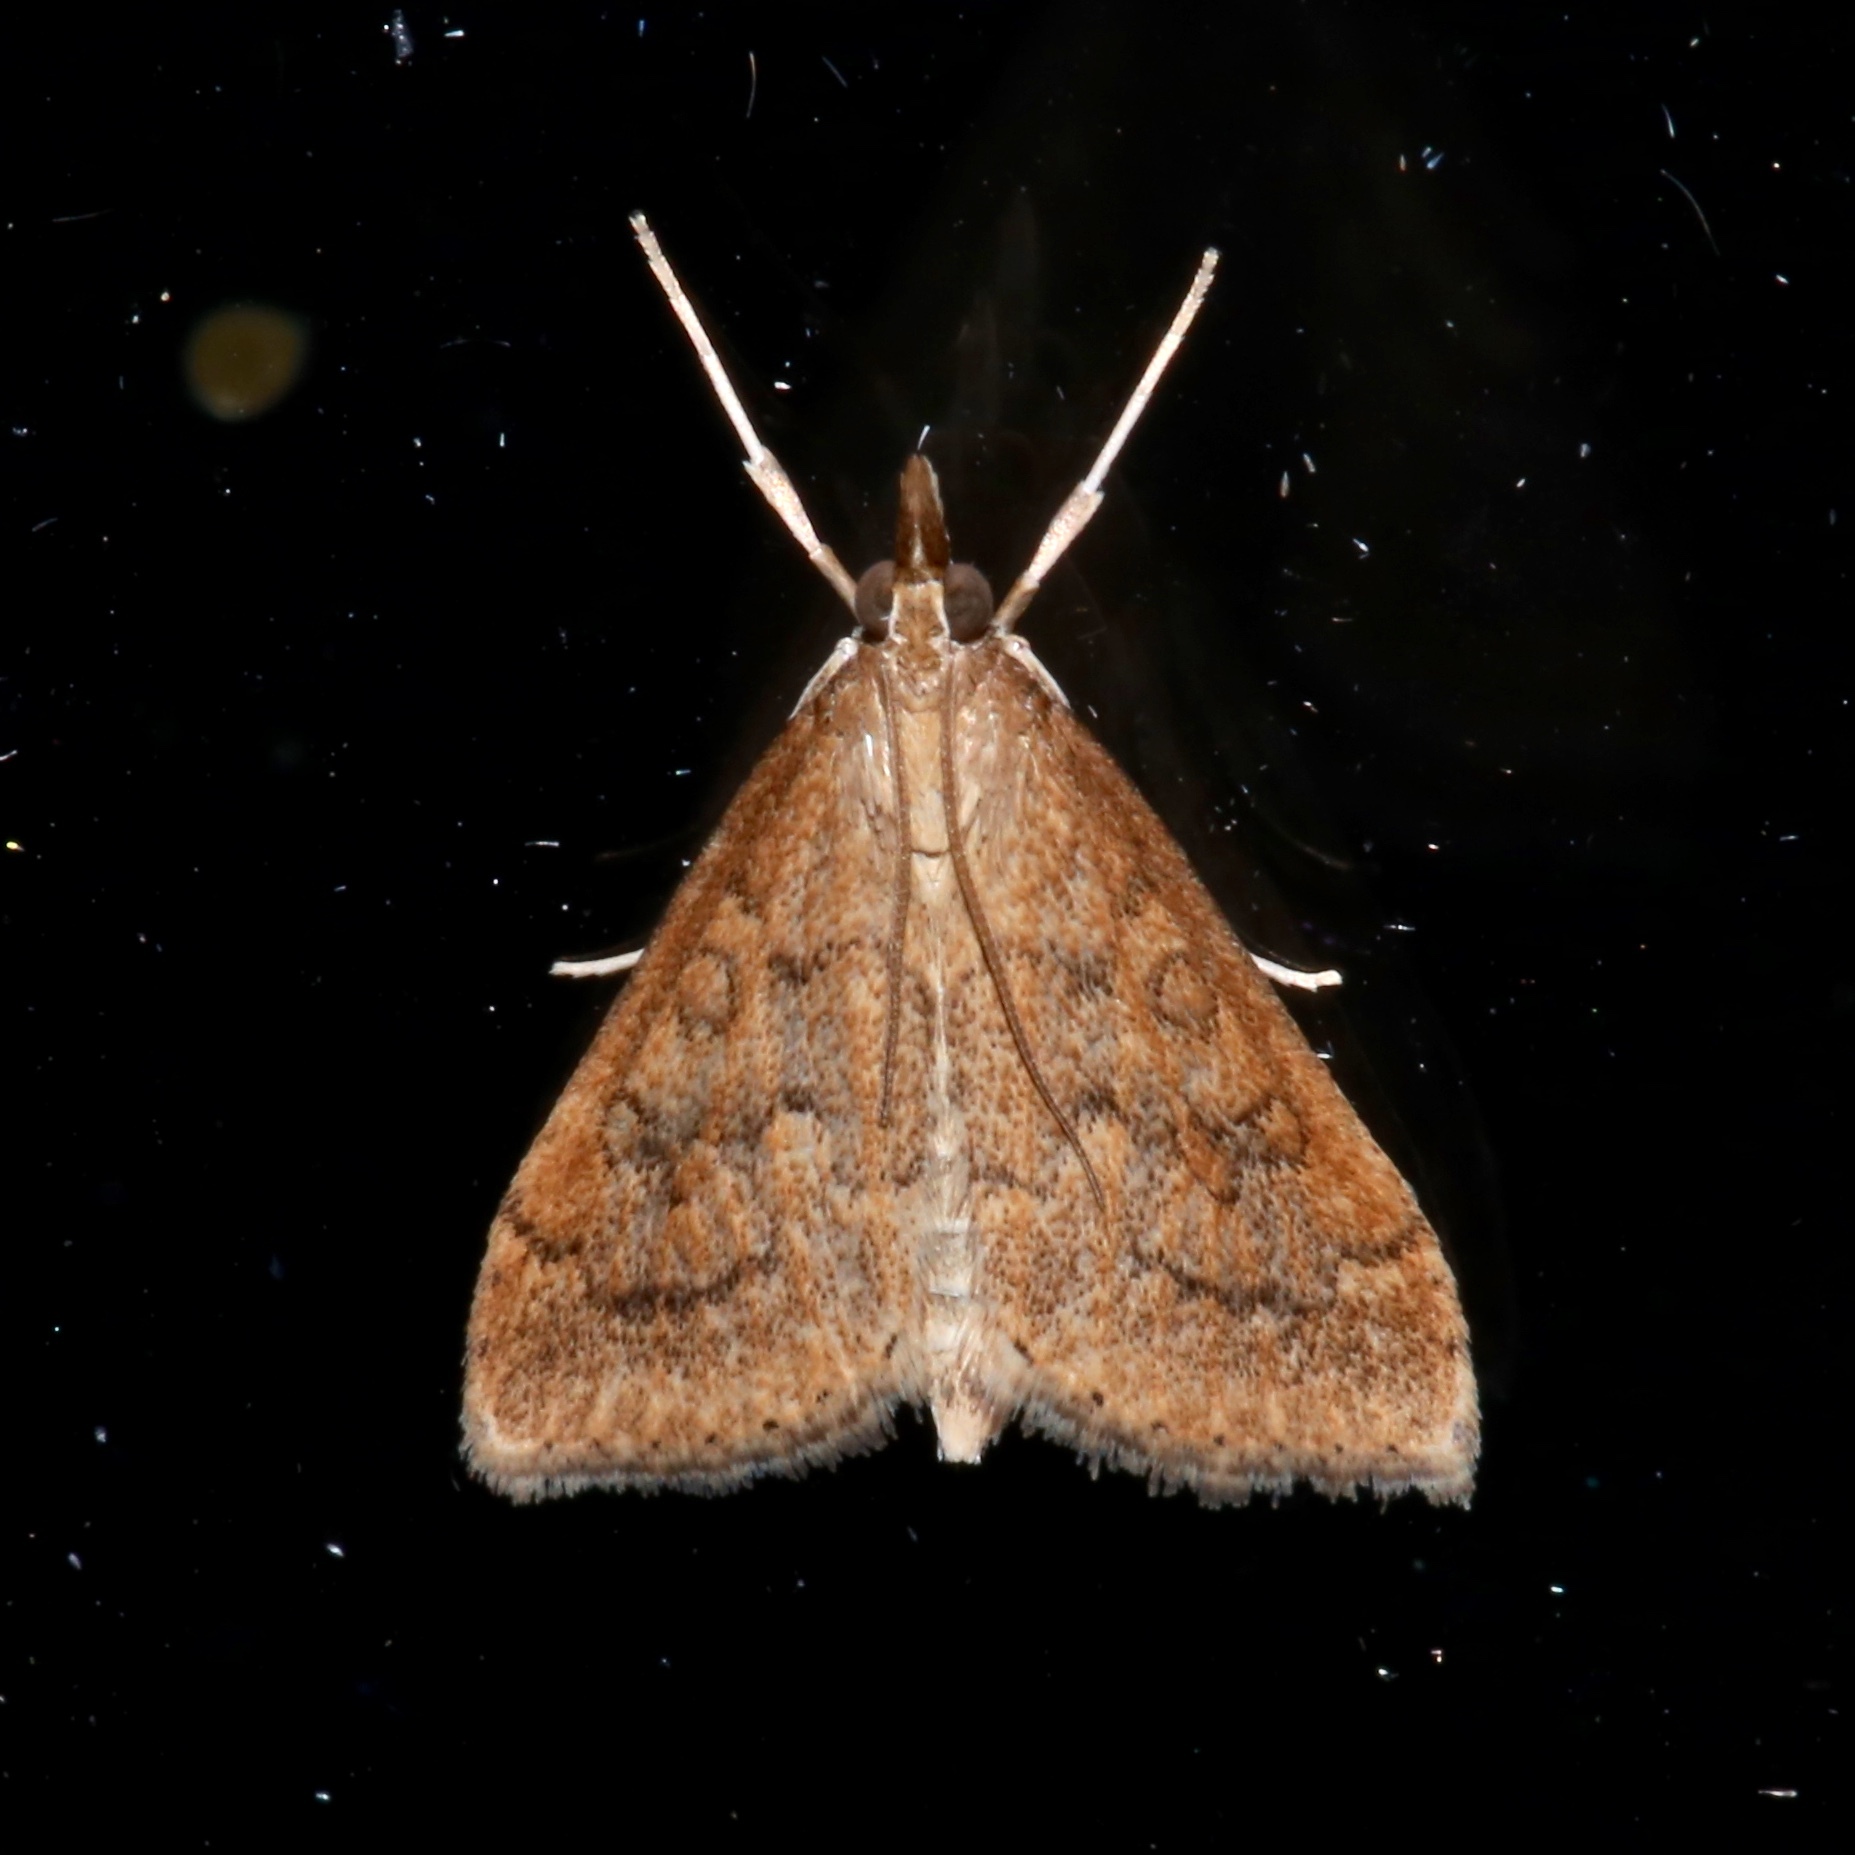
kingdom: Animalia
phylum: Arthropoda
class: Insecta
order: Lepidoptera
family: Crambidae
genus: Udea
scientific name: Udea rubigalis
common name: Celery leaftier moth
